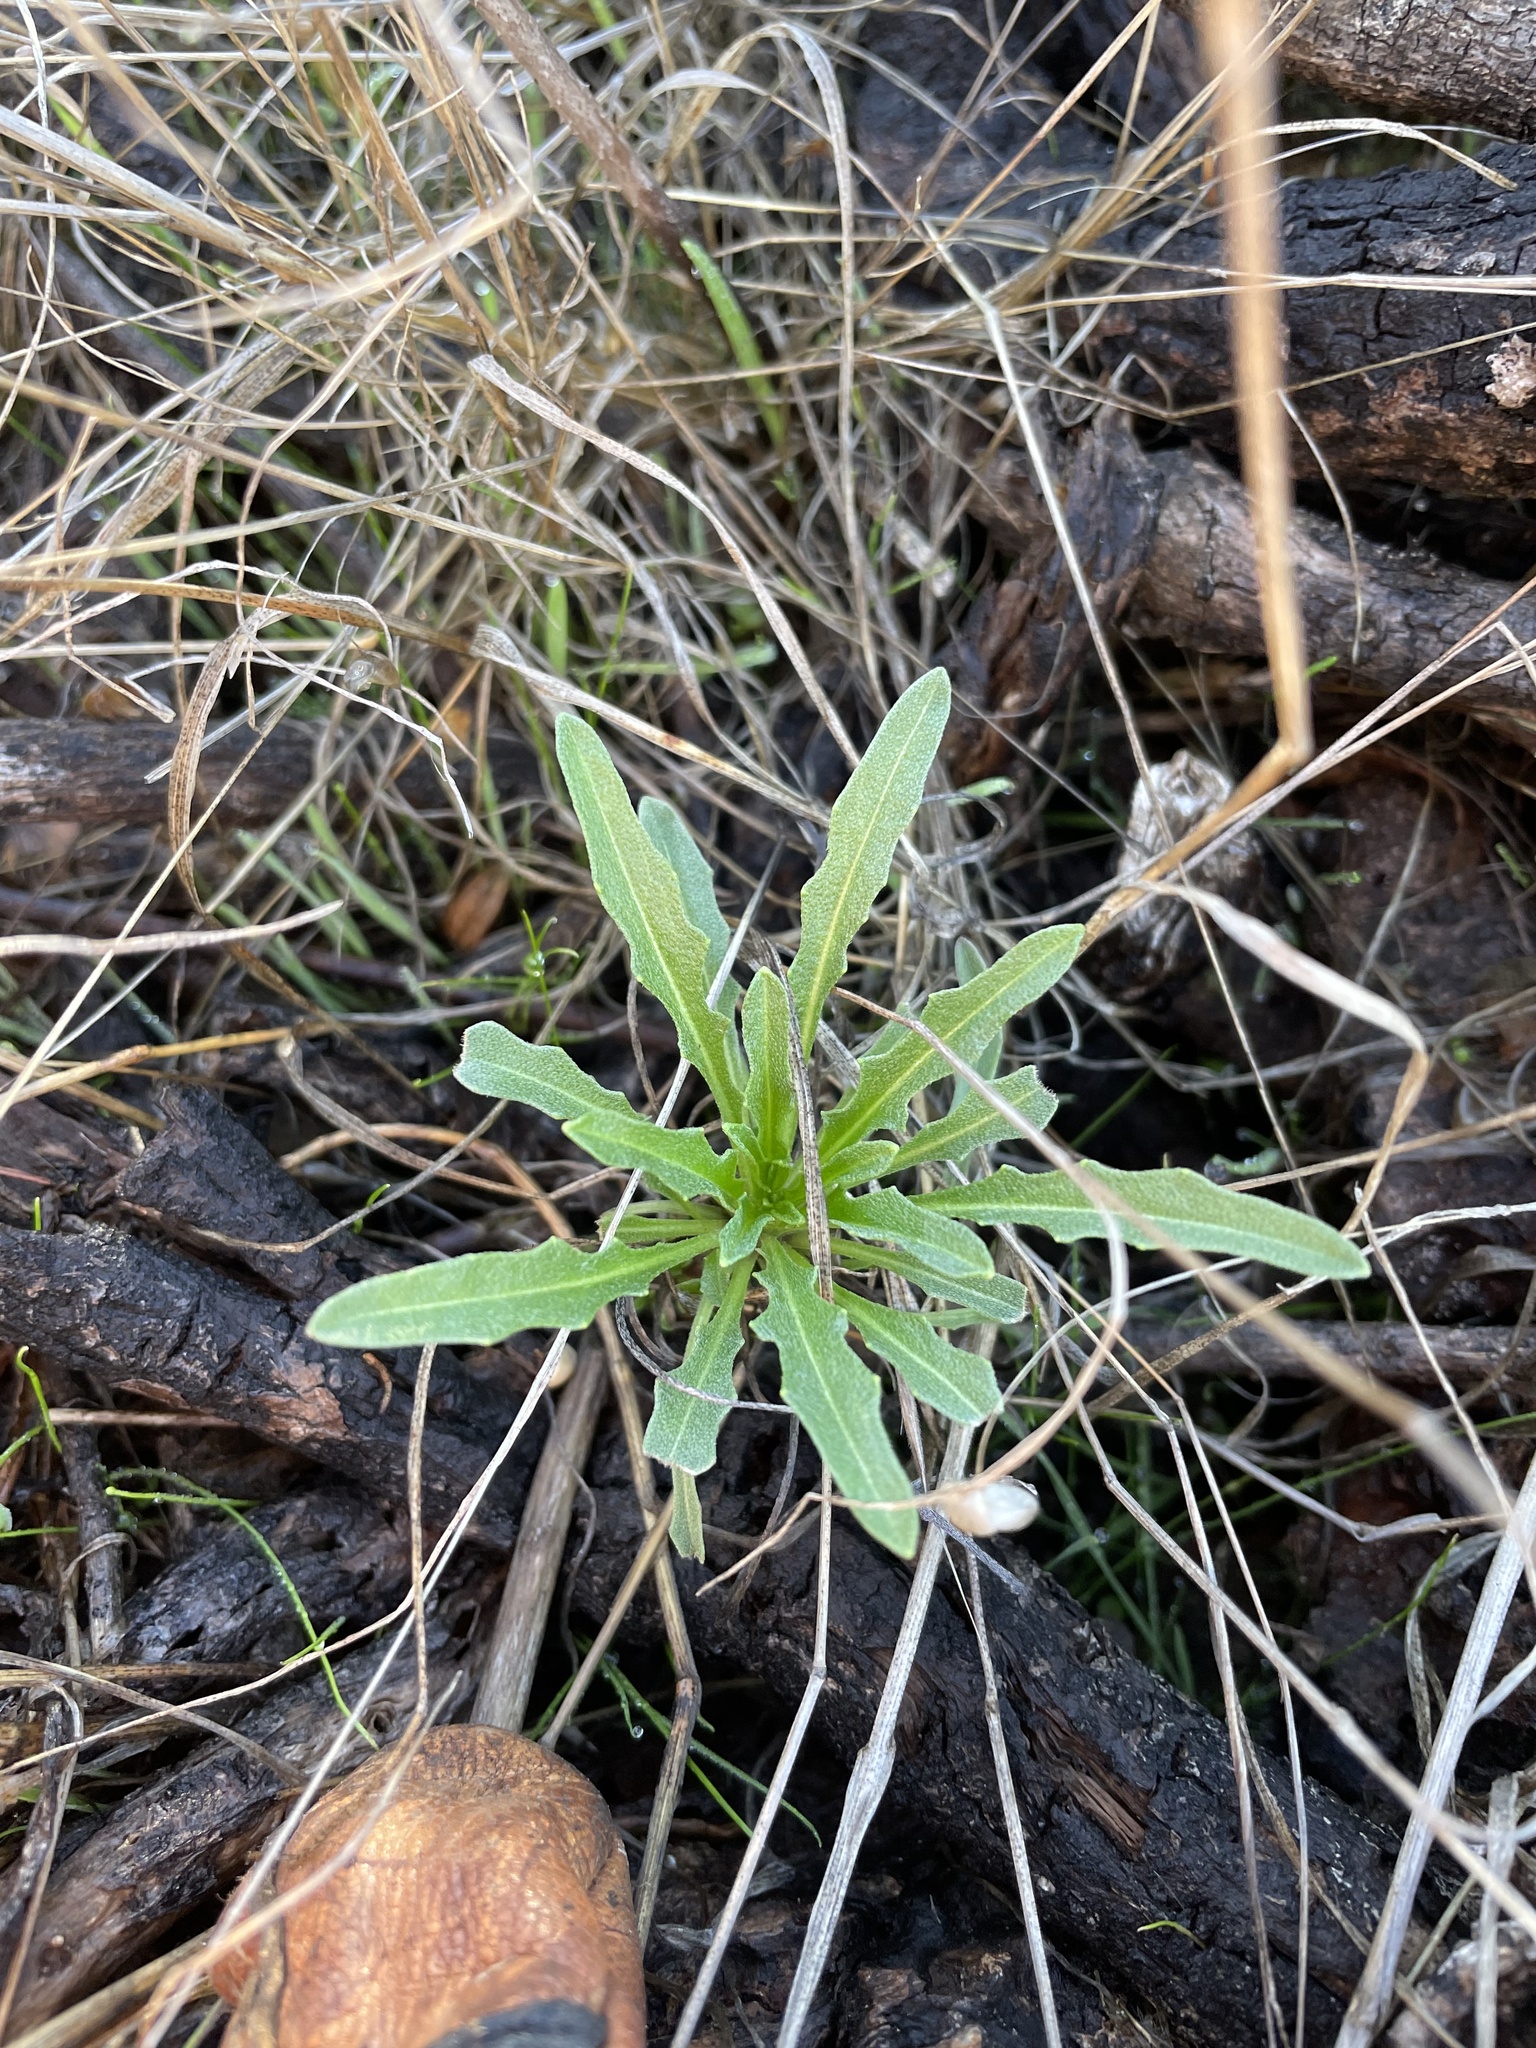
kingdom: Plantae
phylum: Tracheophyta
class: Magnoliopsida
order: Brassicales
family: Brassicaceae
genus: Erysimum
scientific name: Erysimum franciscanum
